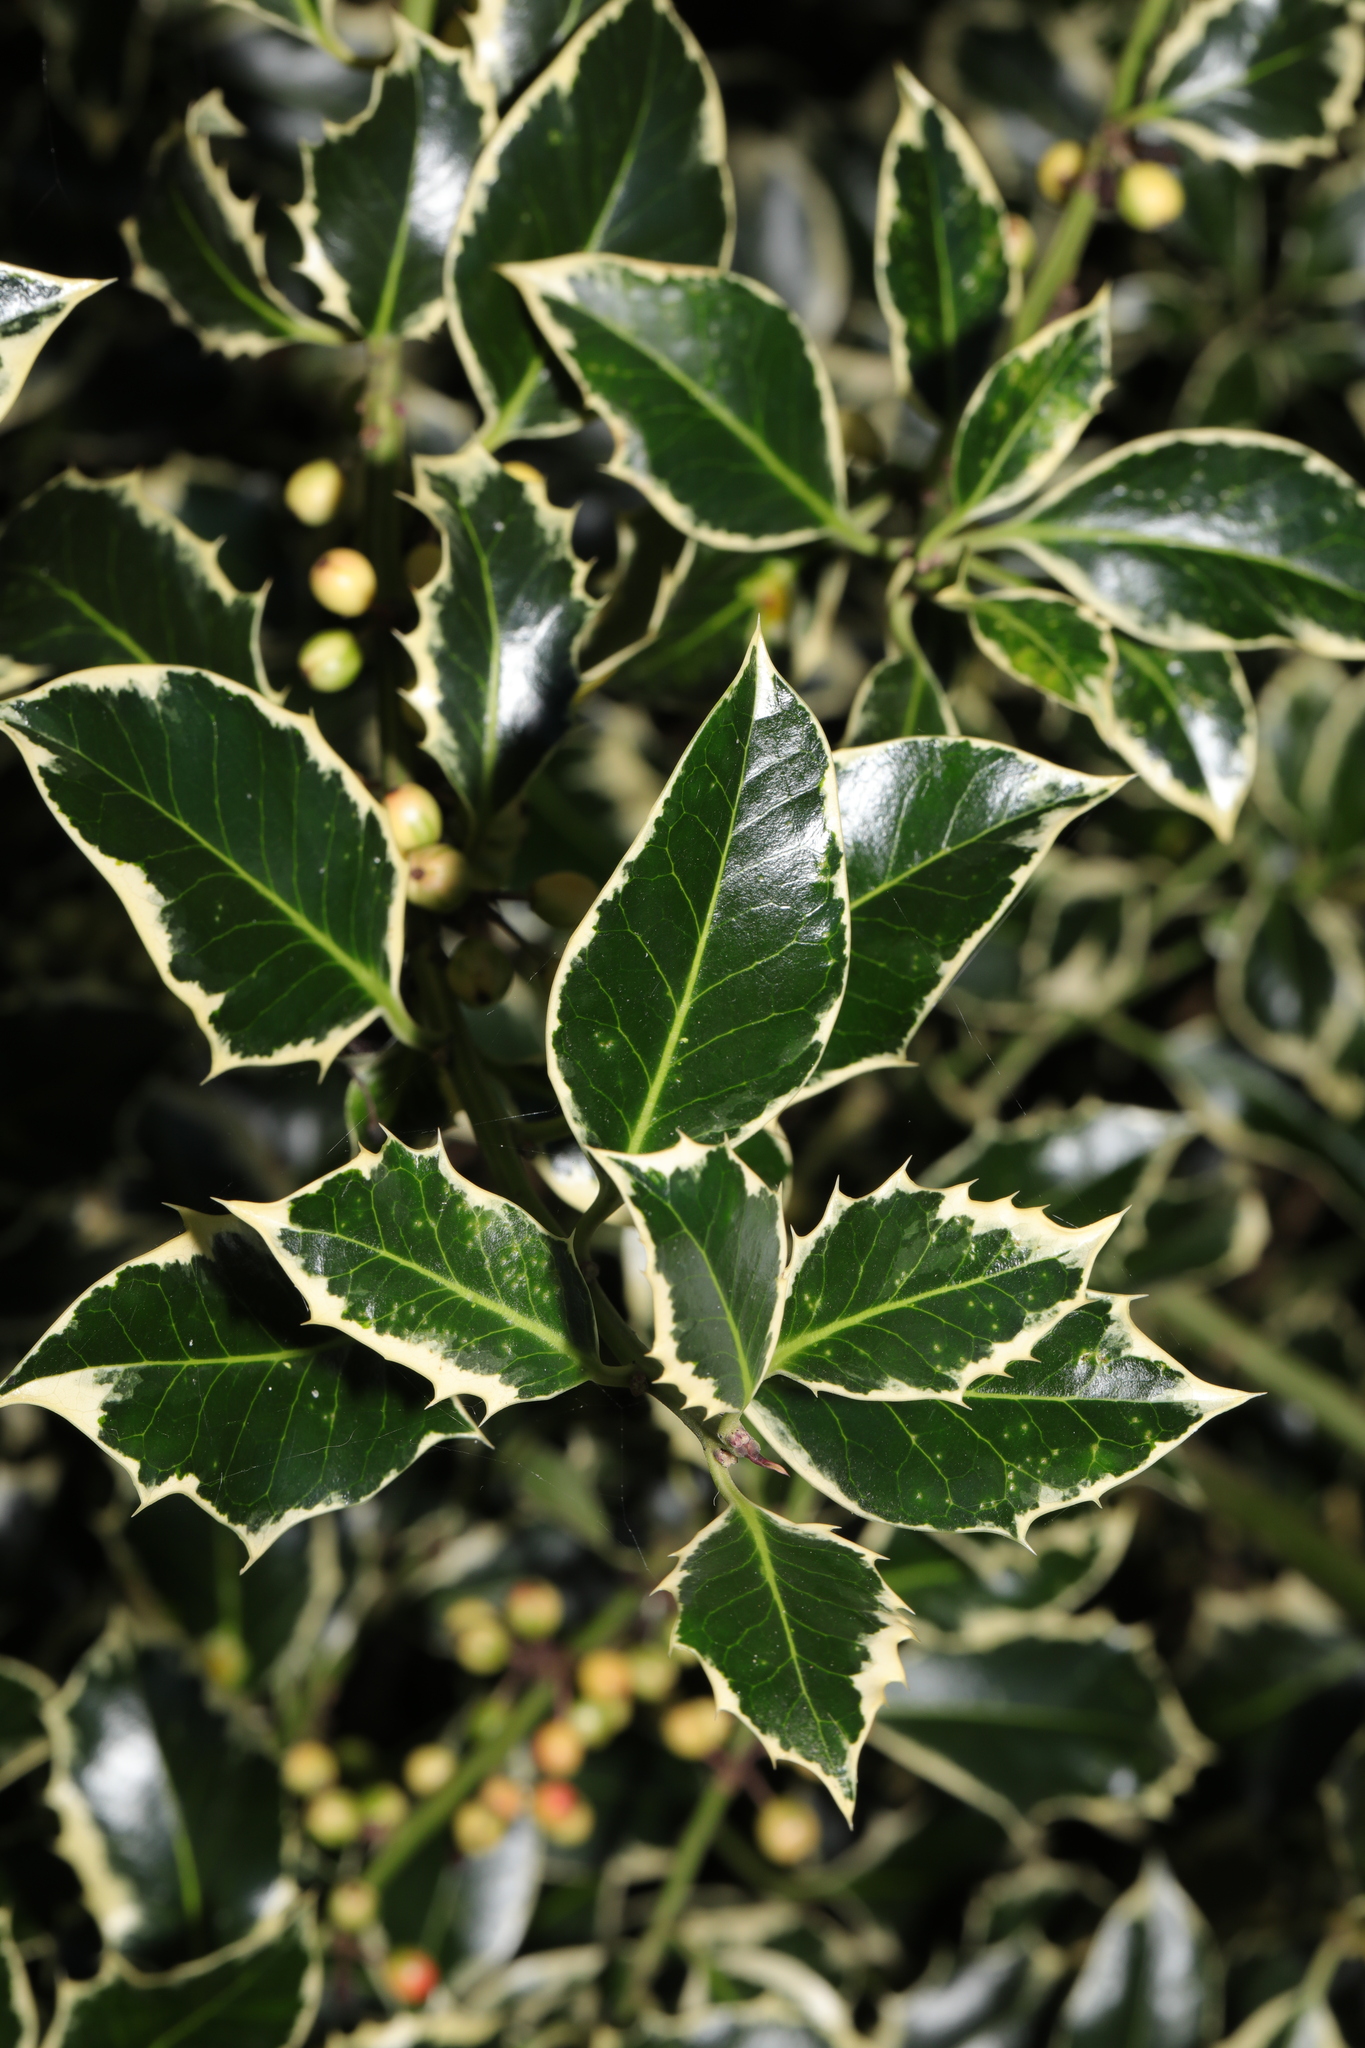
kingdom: Plantae
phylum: Tracheophyta
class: Magnoliopsida
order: Aquifoliales
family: Aquifoliaceae
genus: Ilex
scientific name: Ilex aquifolium
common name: English holly
